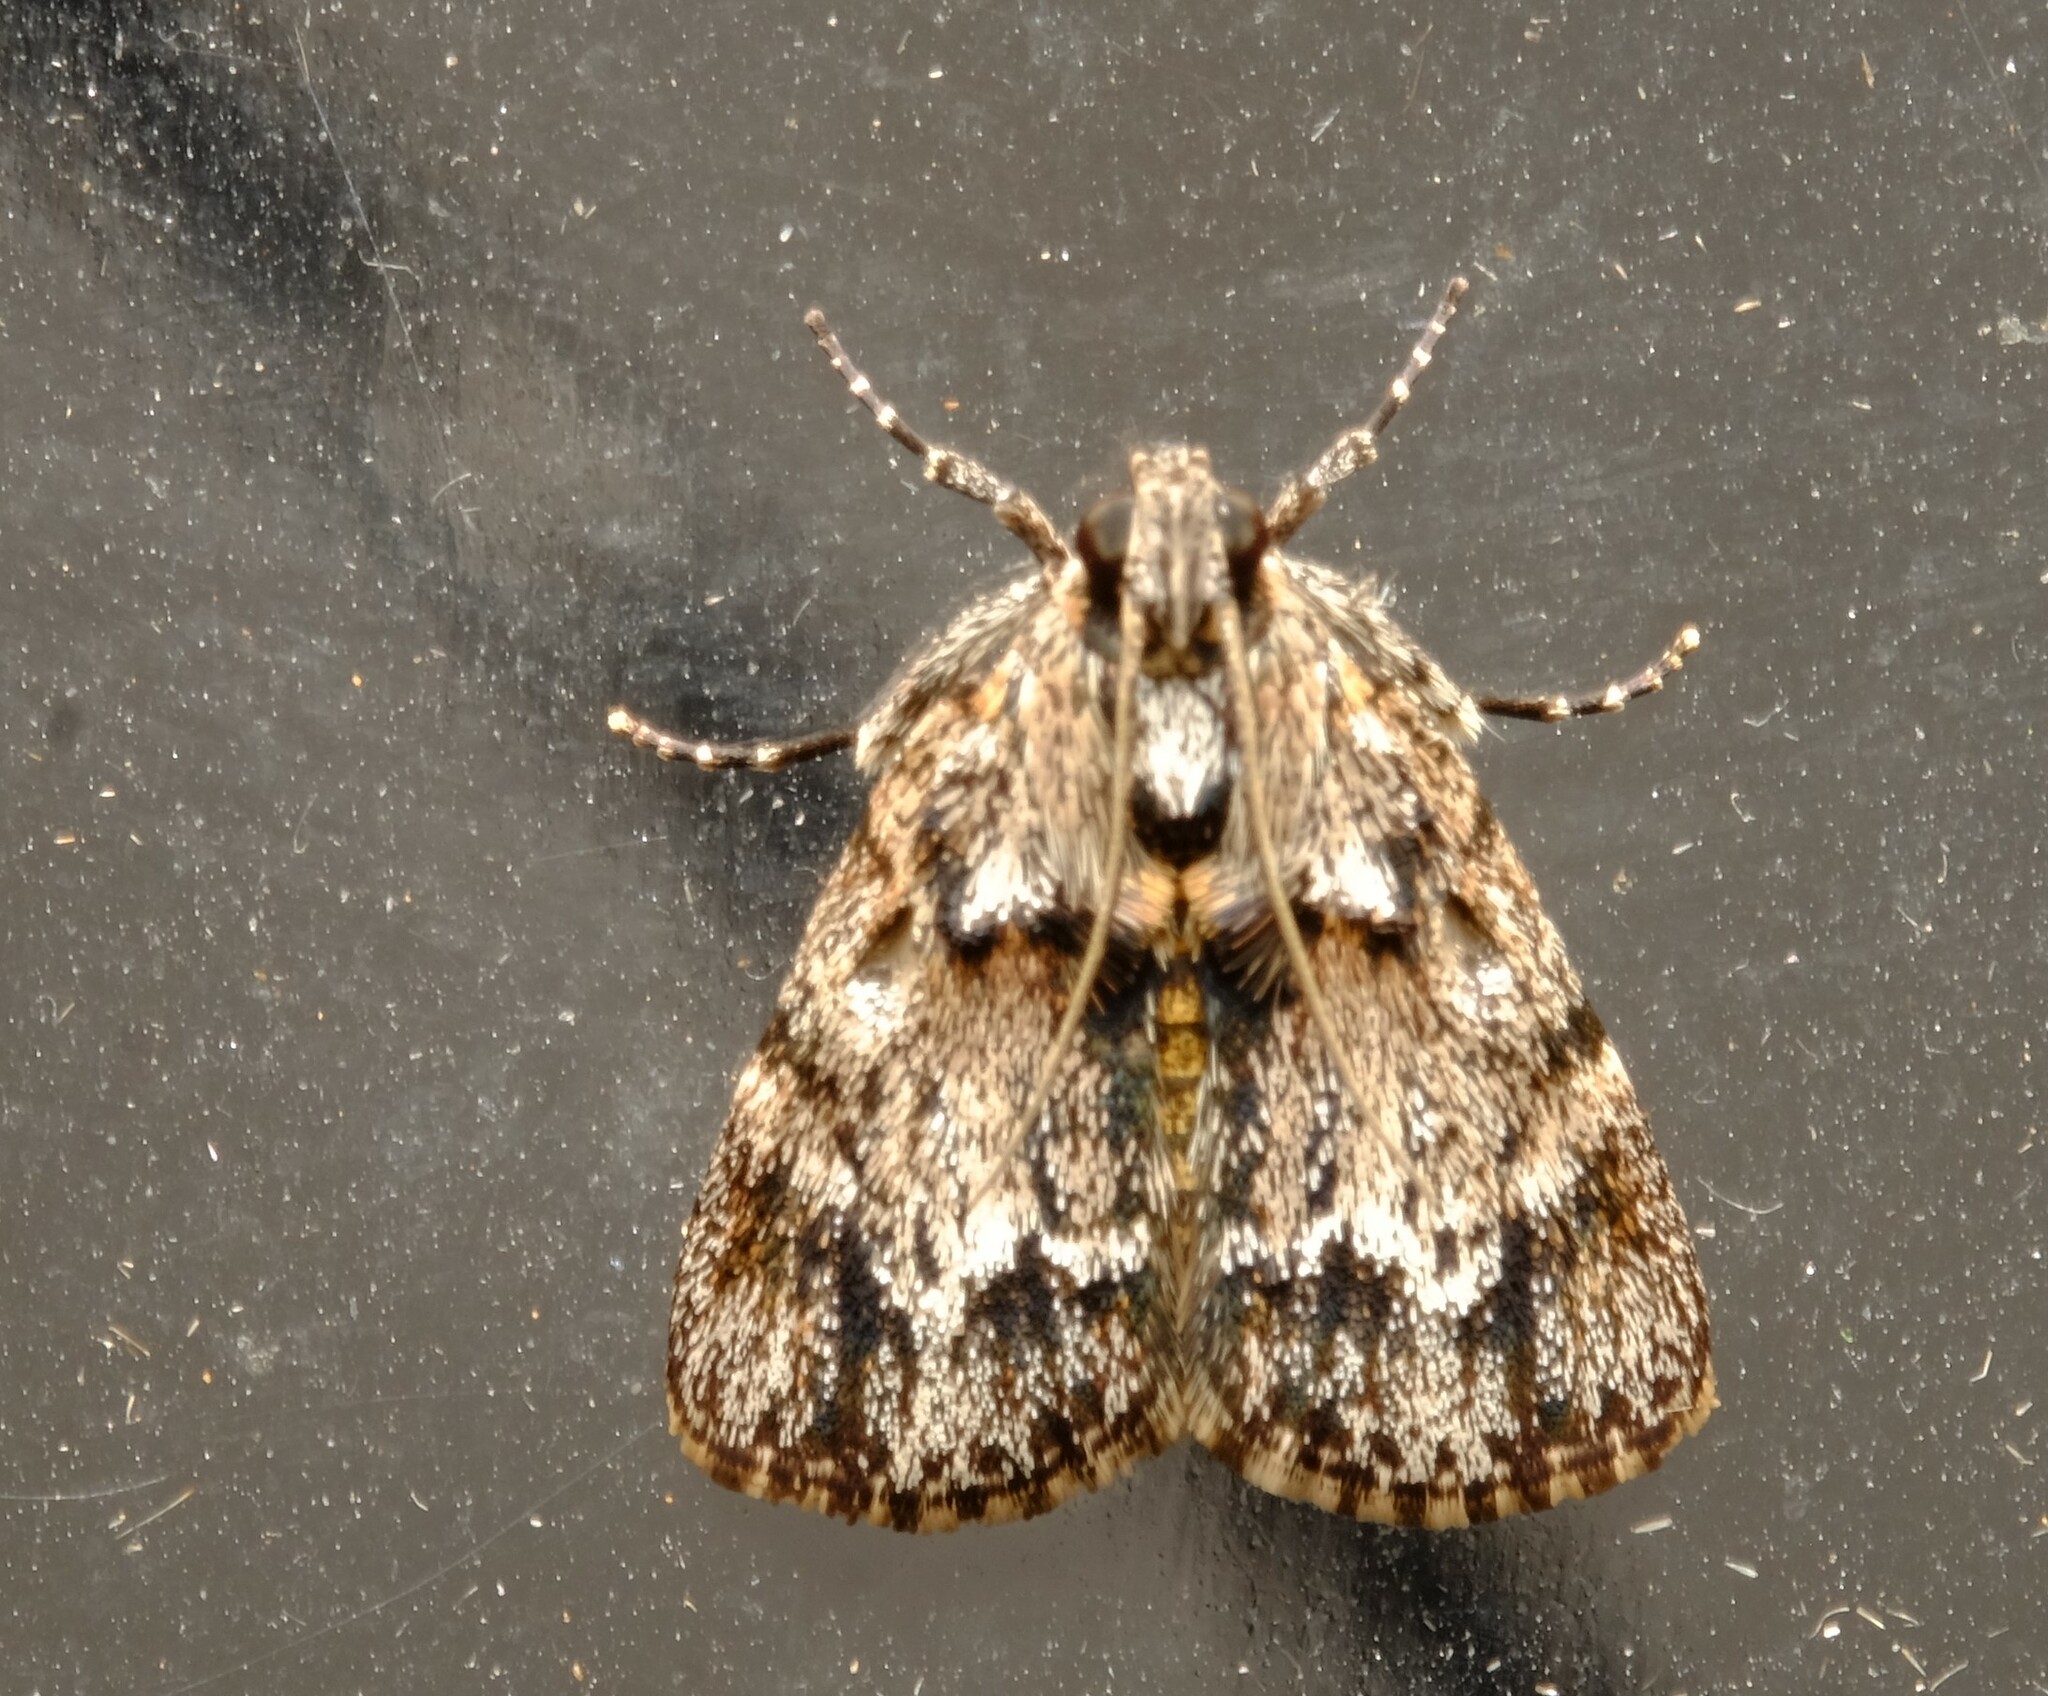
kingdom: Animalia
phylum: Arthropoda
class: Insecta
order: Lepidoptera
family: Pyralidae
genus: Spectrotrota
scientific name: Spectrotrota fimbrialis
